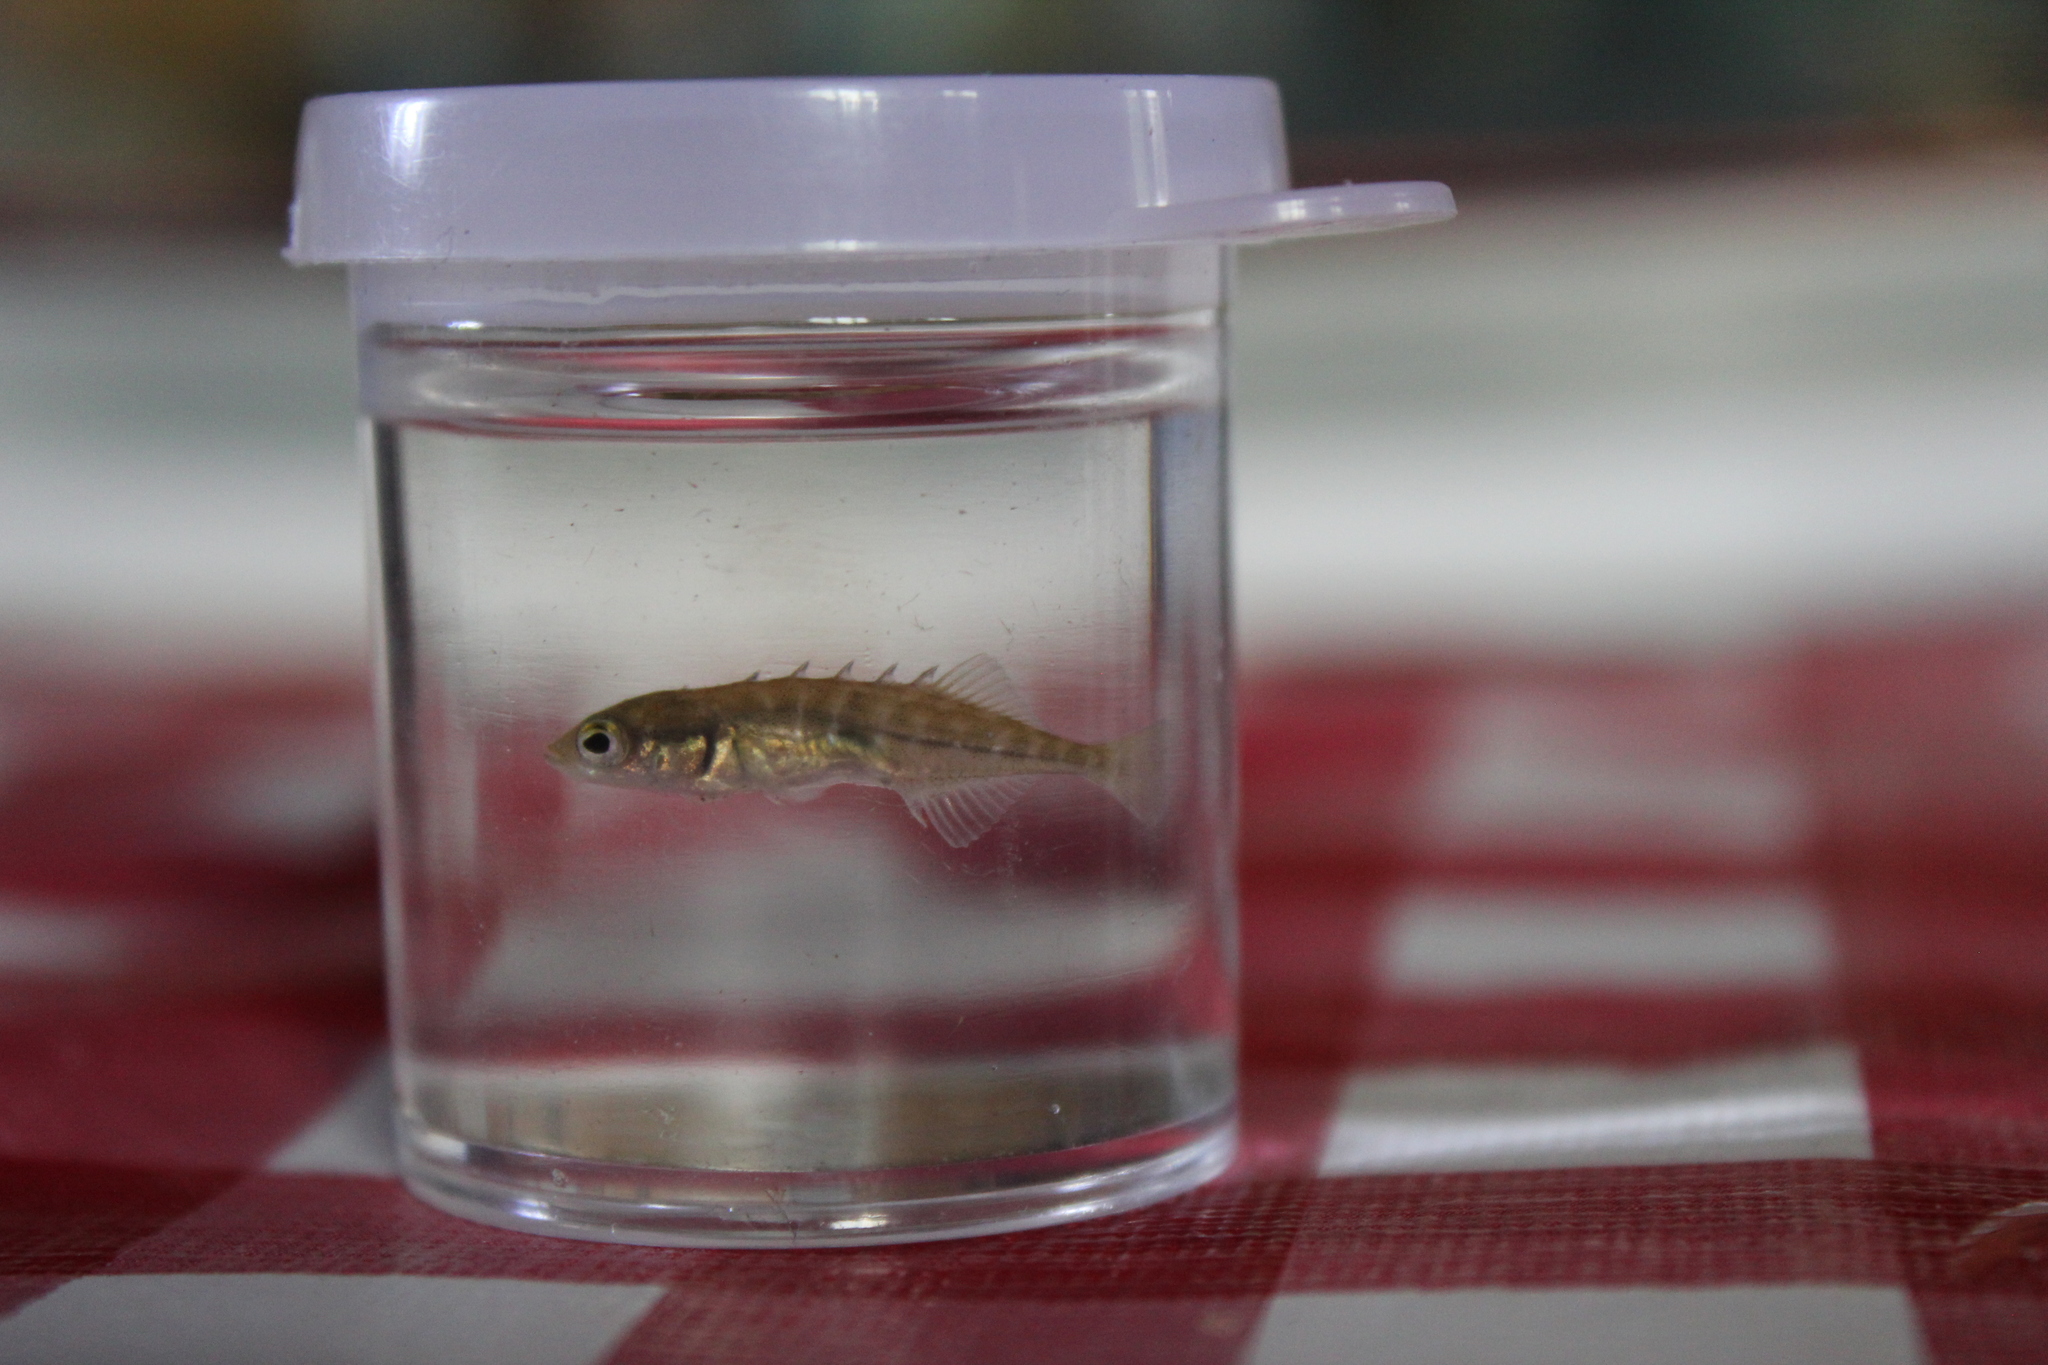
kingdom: Animalia
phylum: Chordata
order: Gasterosteiformes
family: Gasterosteidae
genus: Culaea
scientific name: Culaea inconstans
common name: Brook stickleback
